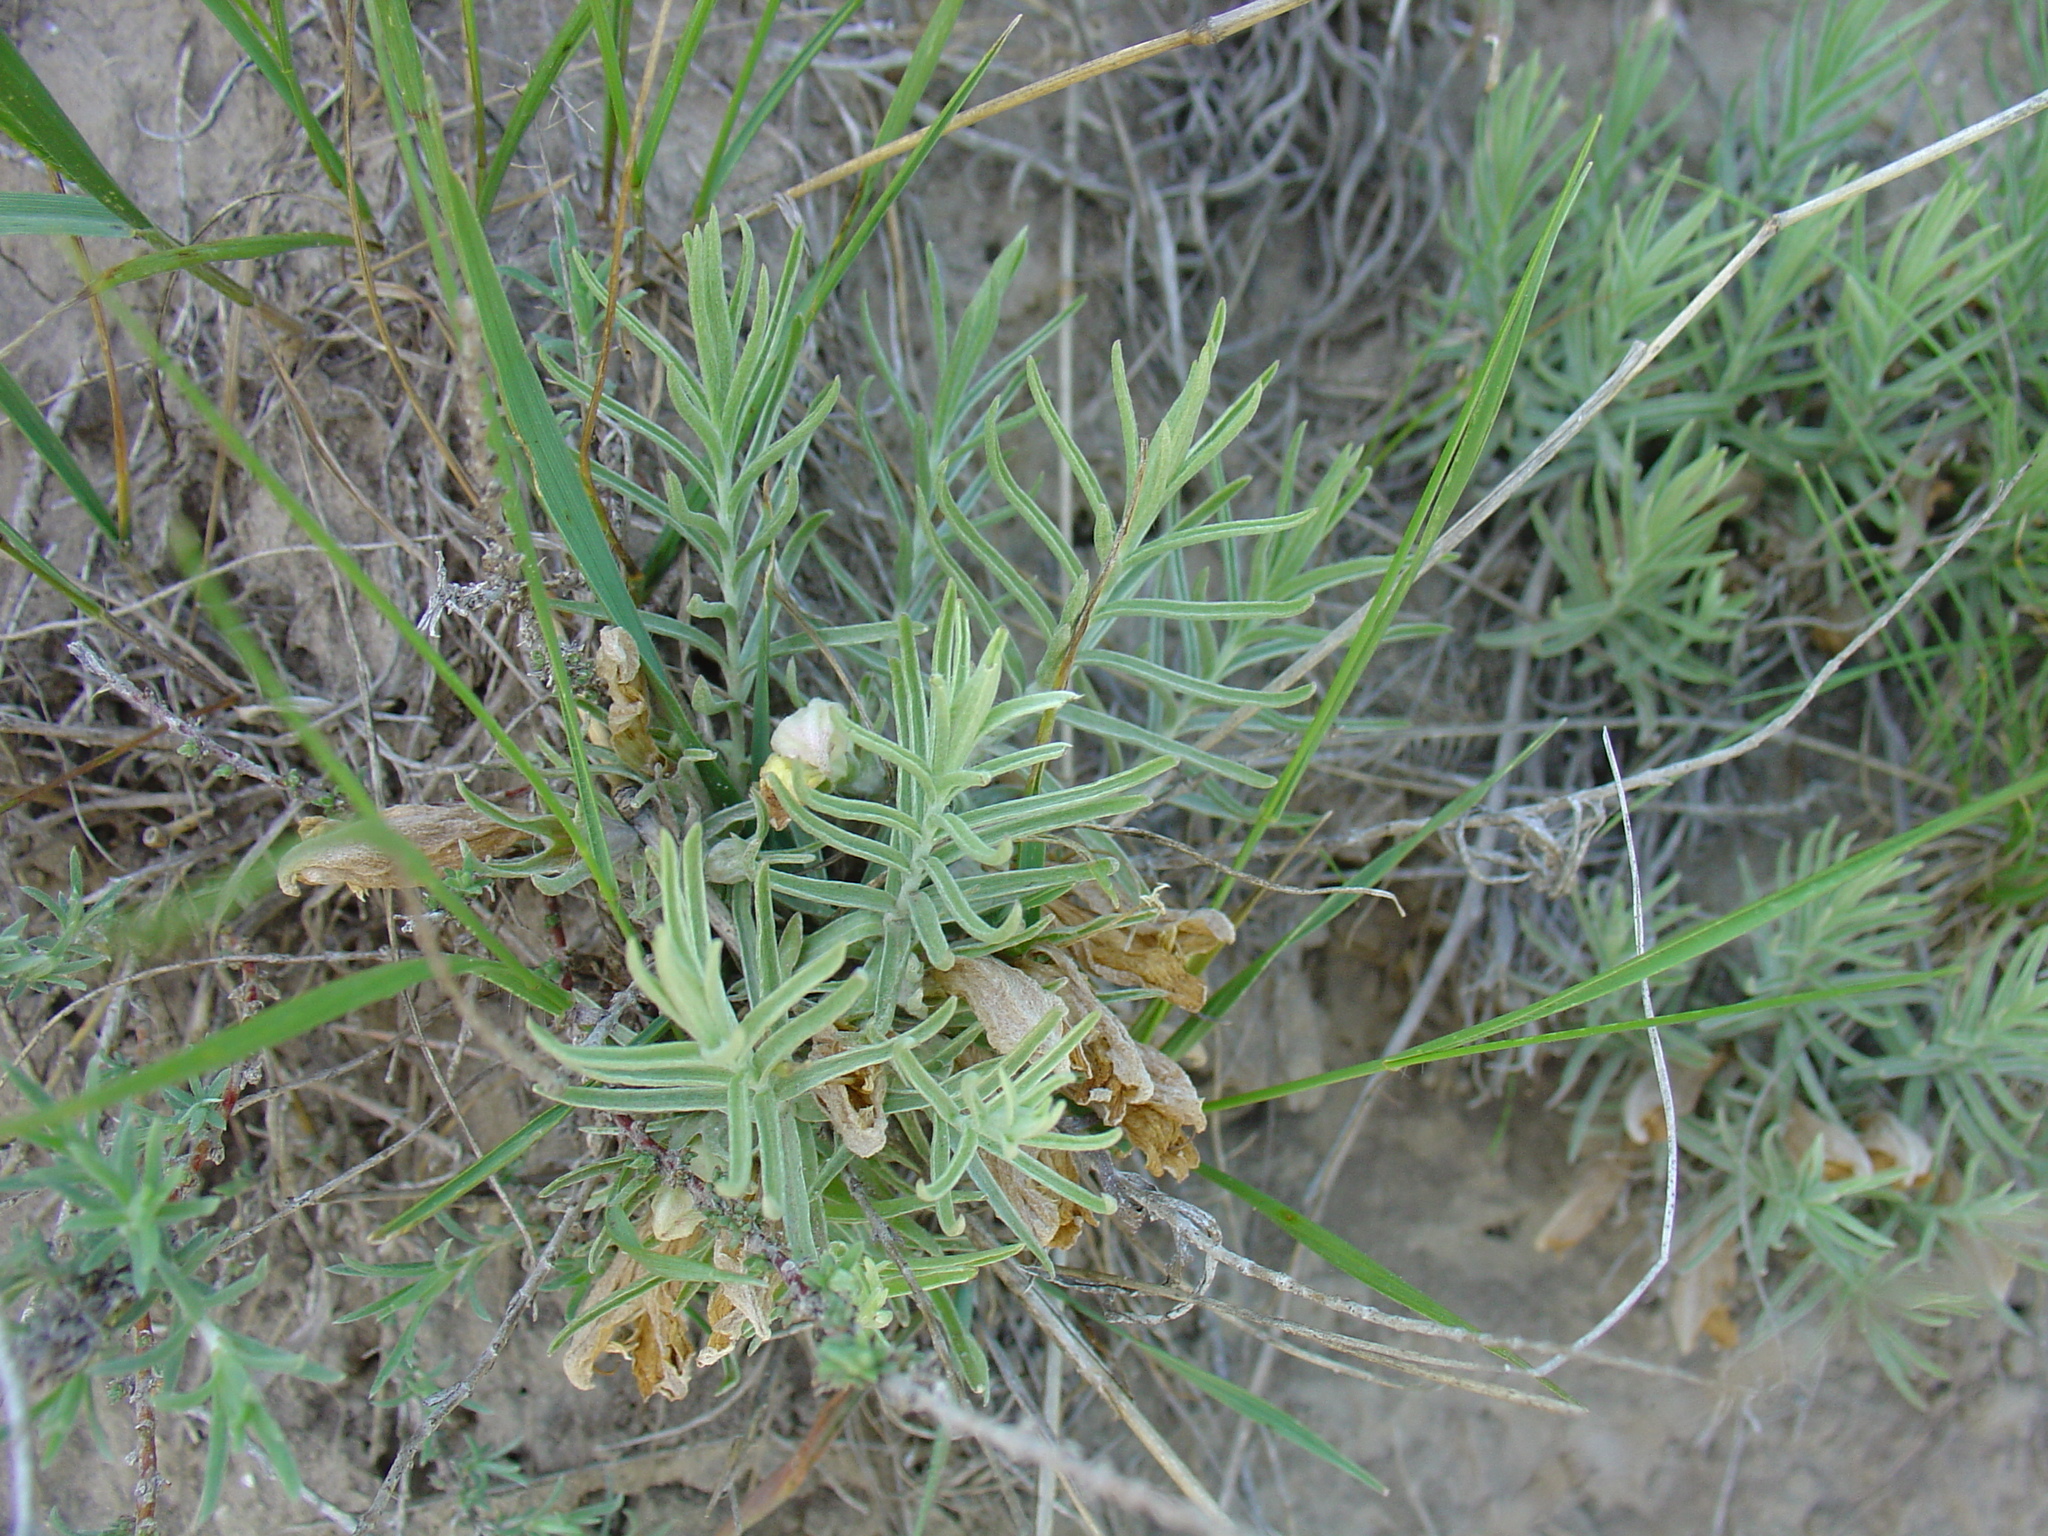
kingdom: Plantae
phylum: Tracheophyta
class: Magnoliopsida
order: Lamiales
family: Orobanchaceae
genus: Cymbaria
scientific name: Cymbaria borysthenica
